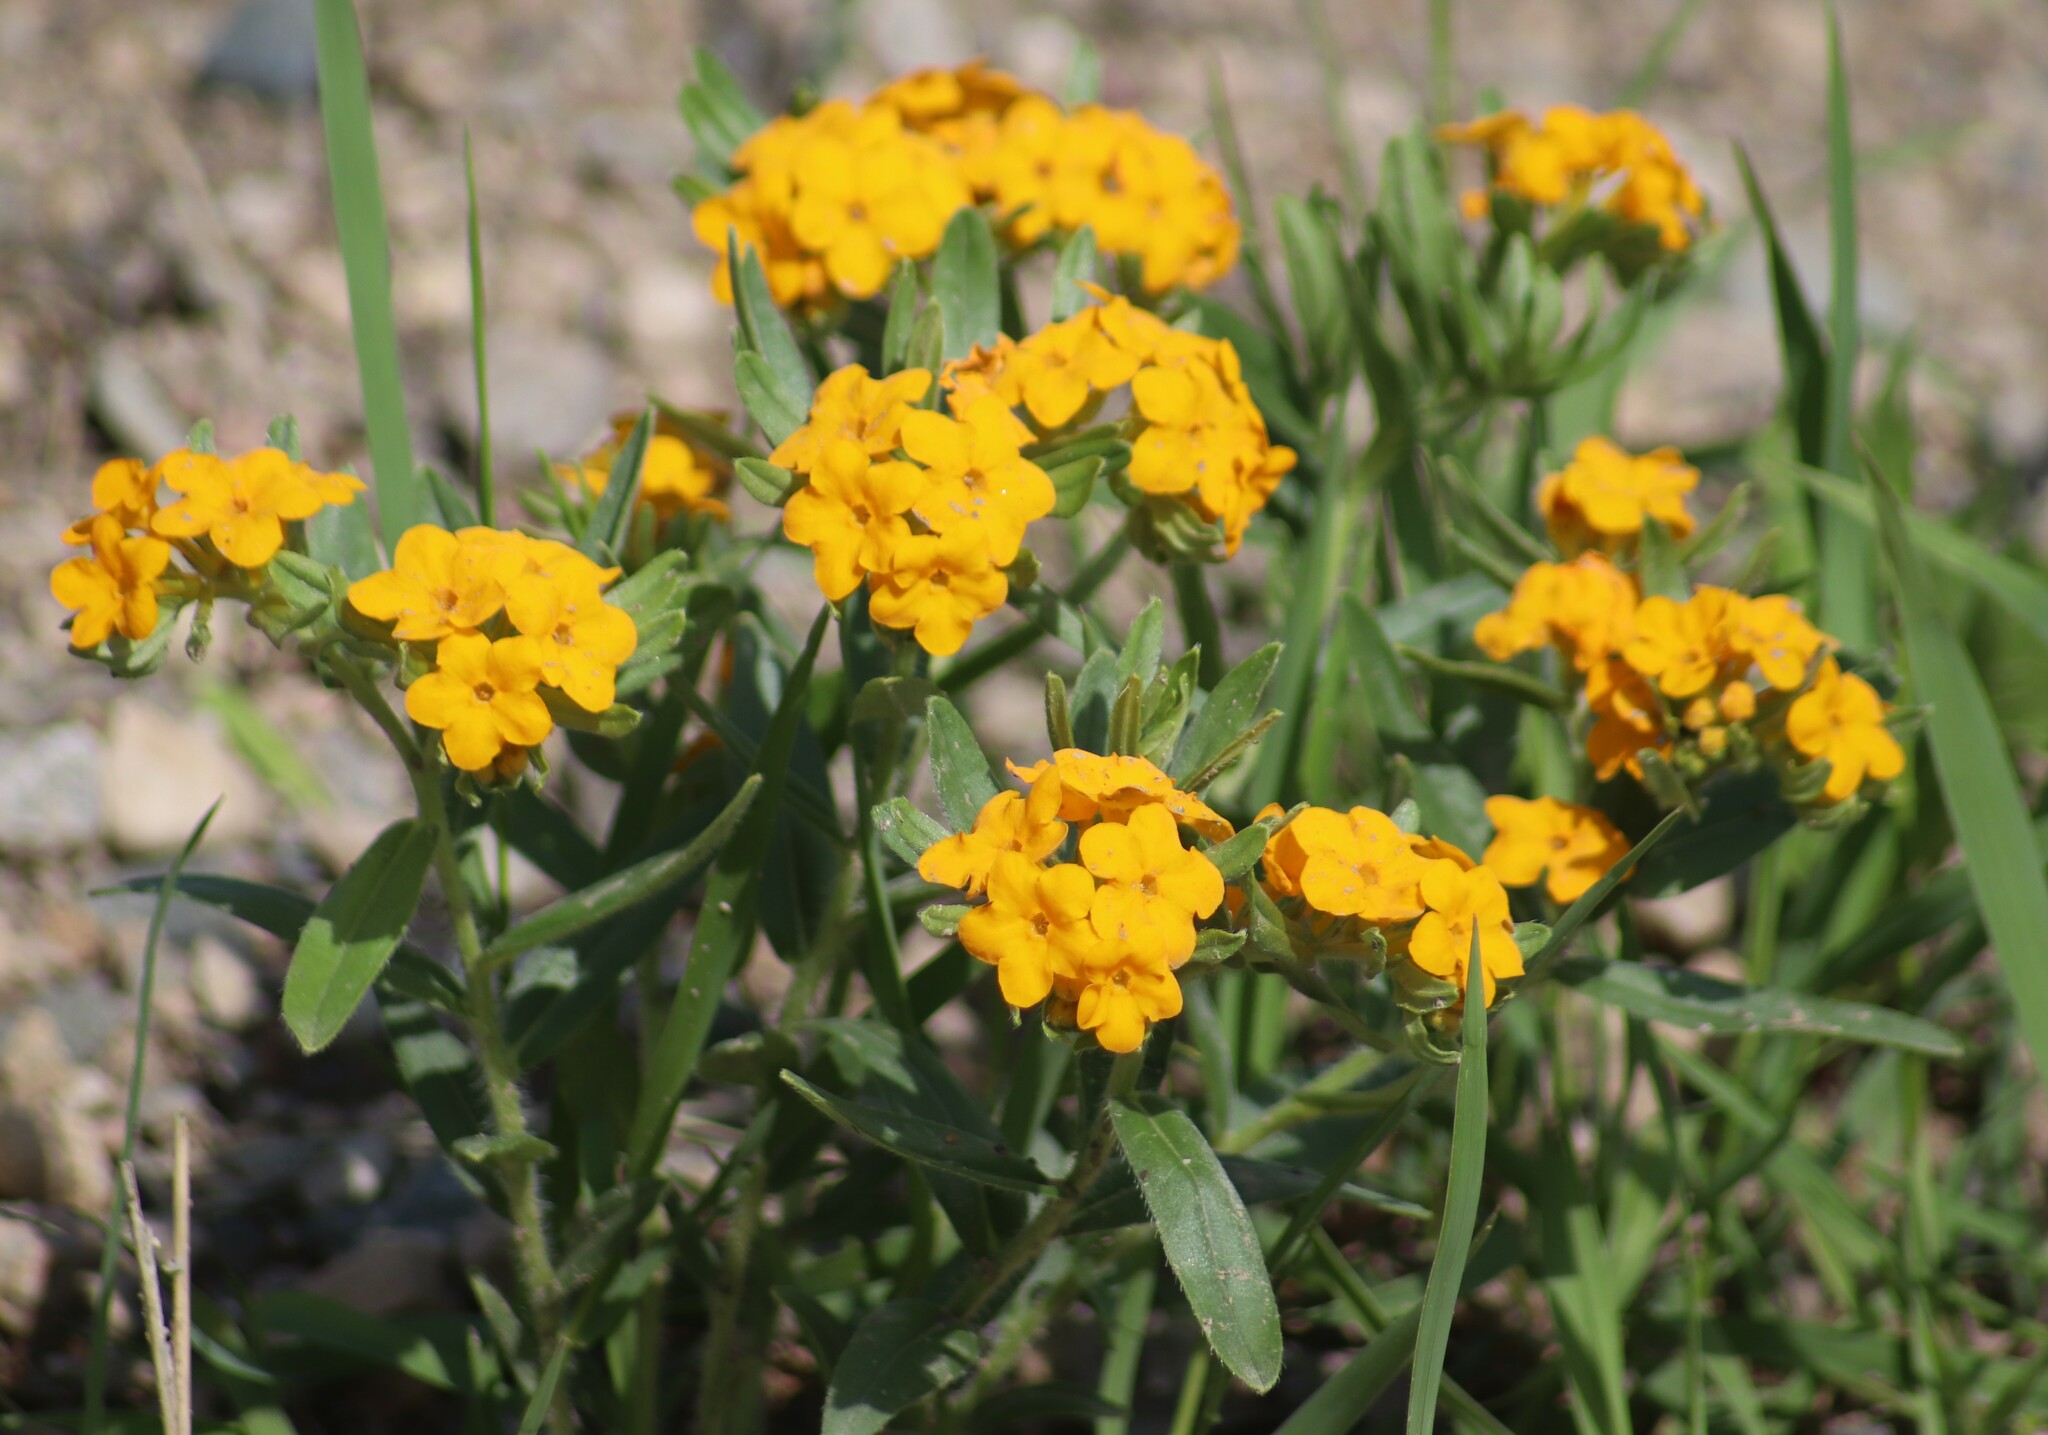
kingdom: Plantae
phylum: Tracheophyta
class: Magnoliopsida
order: Boraginales
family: Boraginaceae
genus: Lithospermum
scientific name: Lithospermum canescens
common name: Hoary puccoon
